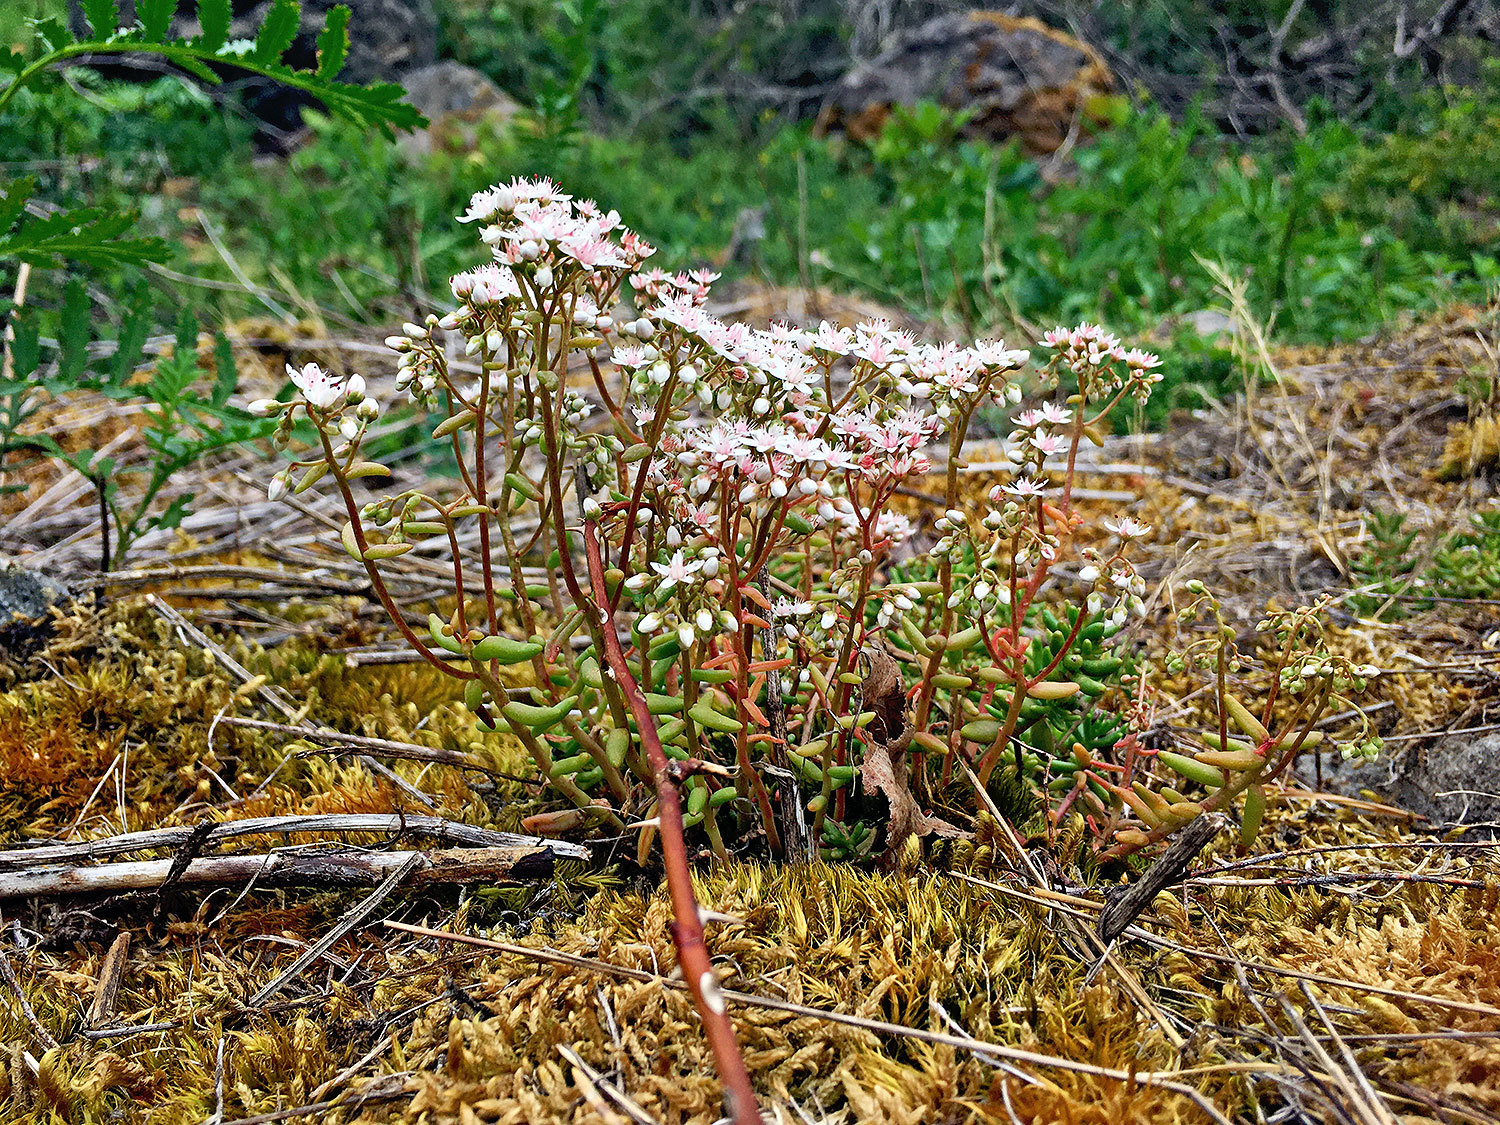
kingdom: Plantae
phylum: Tracheophyta
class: Magnoliopsida
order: Saxifragales
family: Crassulaceae
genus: Sedum
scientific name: Sedum album
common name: White stonecrop
